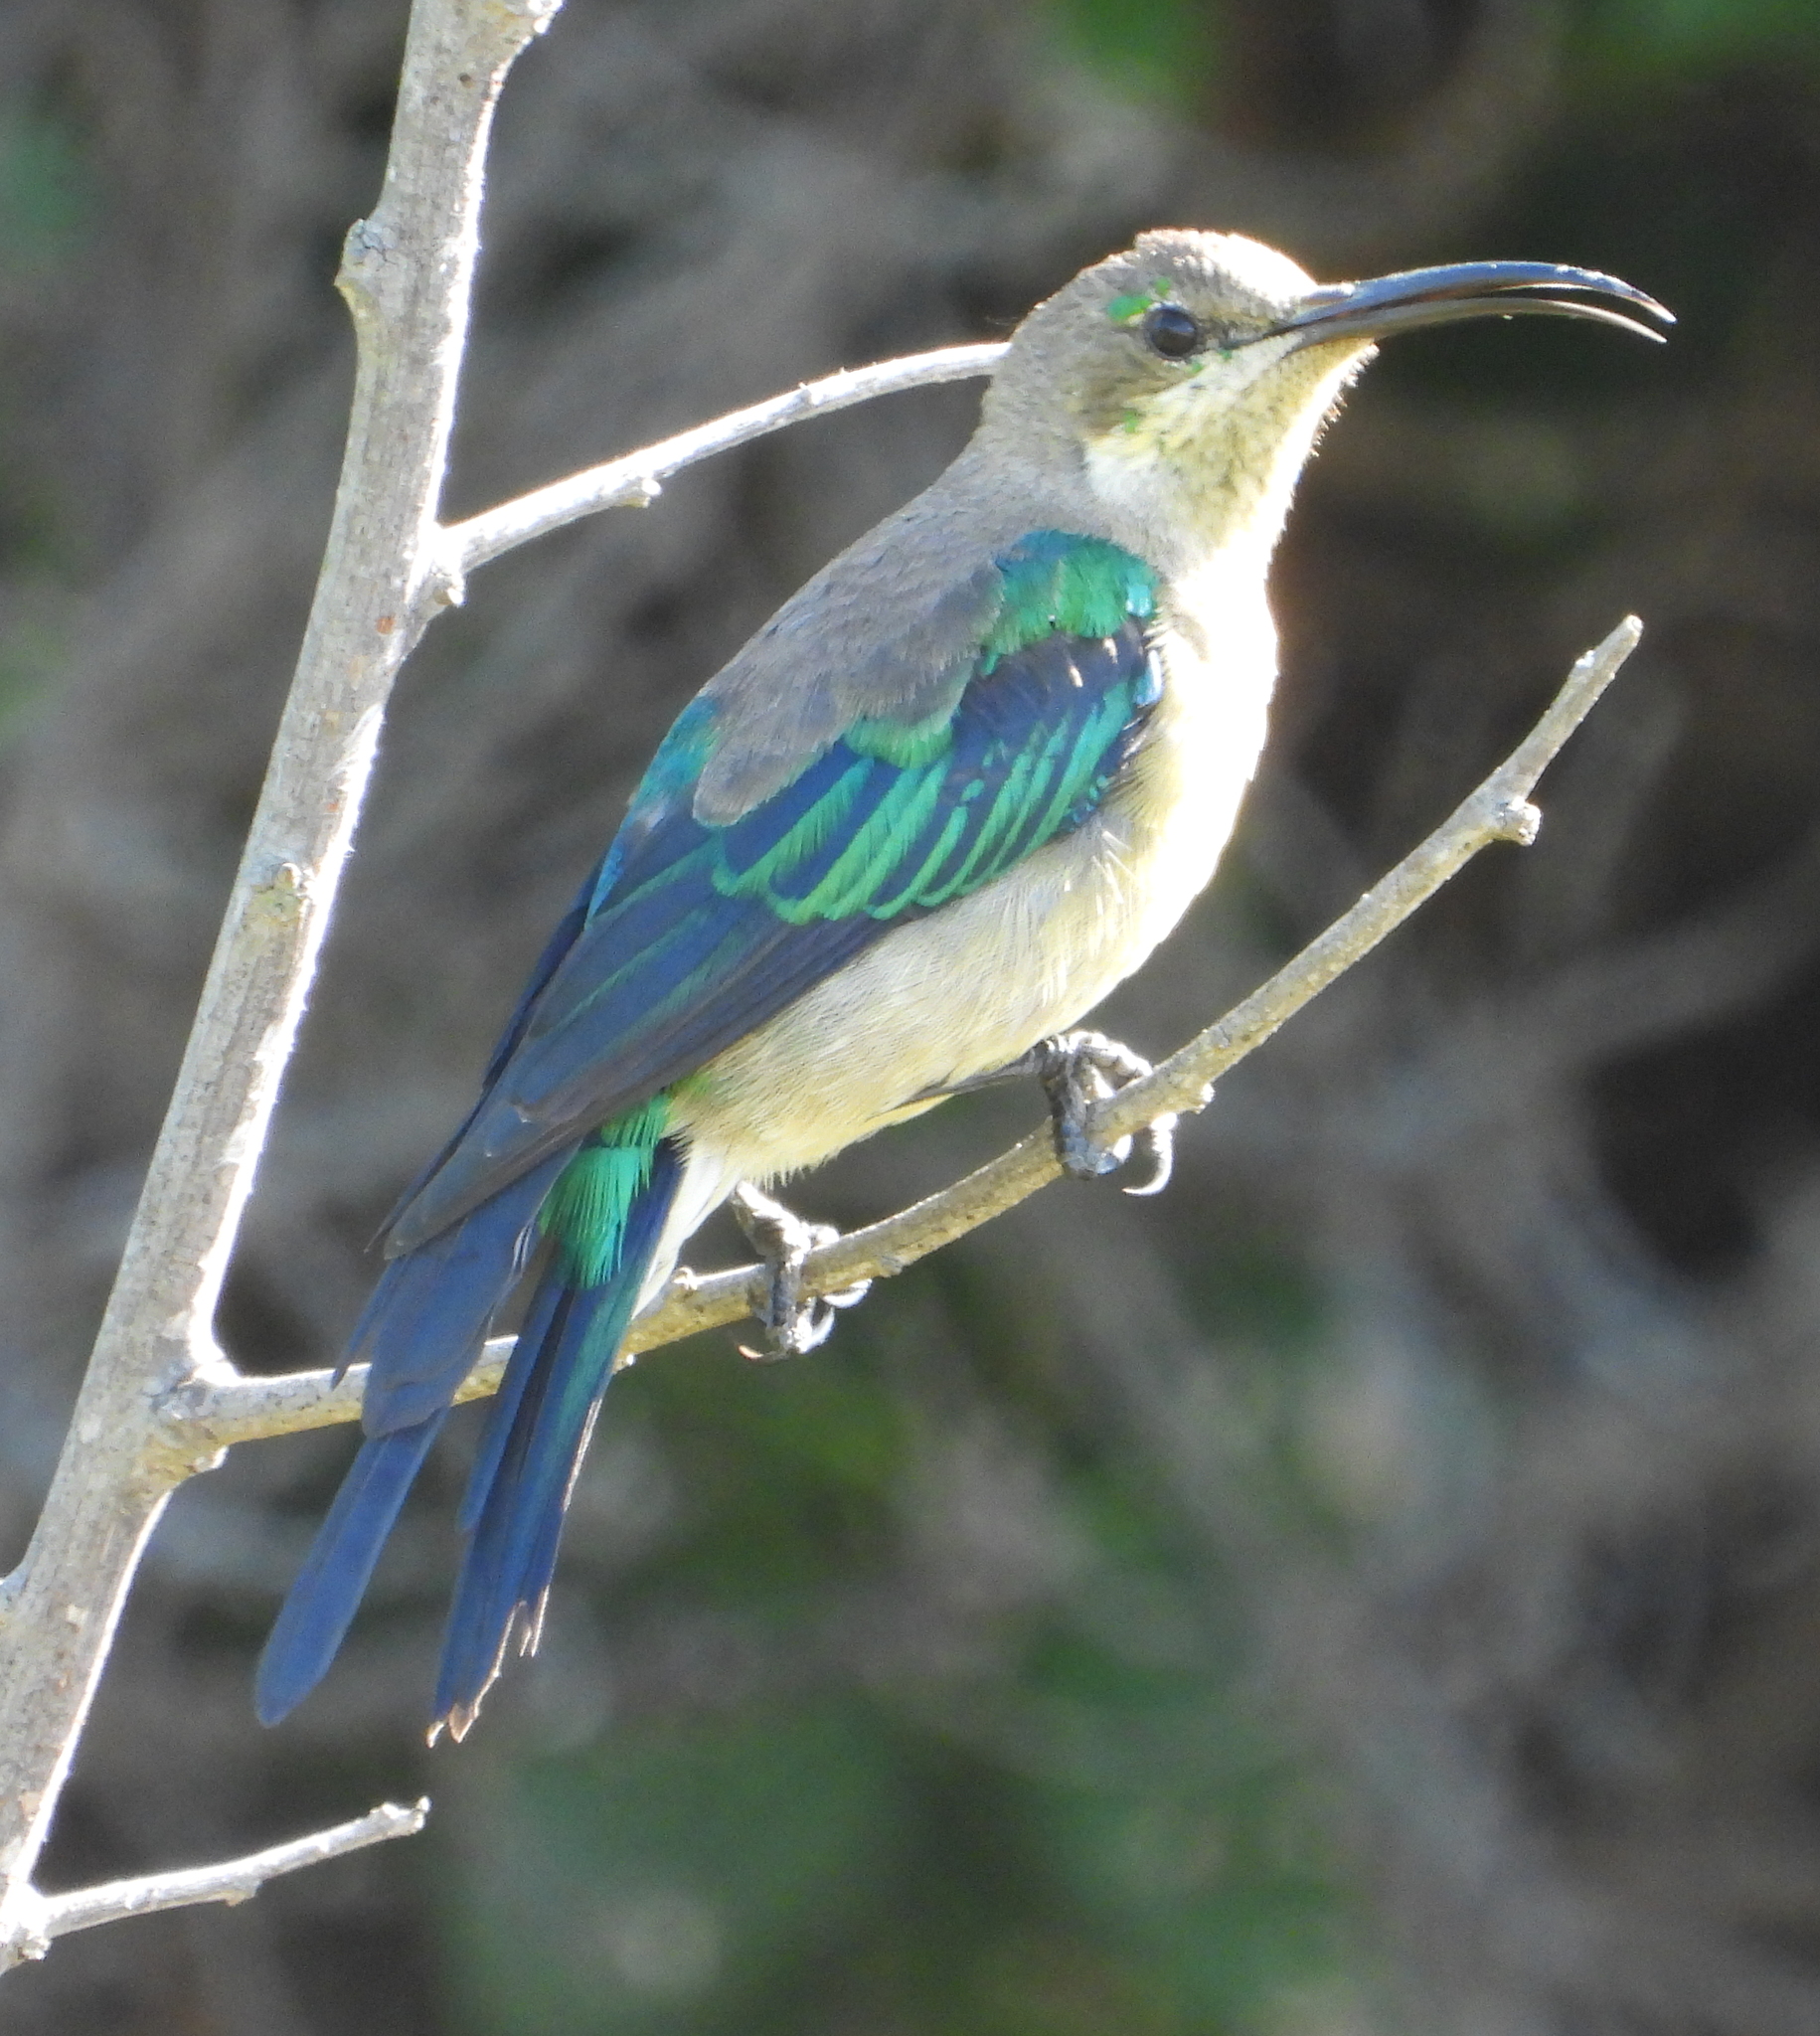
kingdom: Animalia
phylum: Chordata
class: Aves
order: Passeriformes
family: Nectariniidae
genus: Nectarinia
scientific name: Nectarinia famosa
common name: Malachite sunbird
